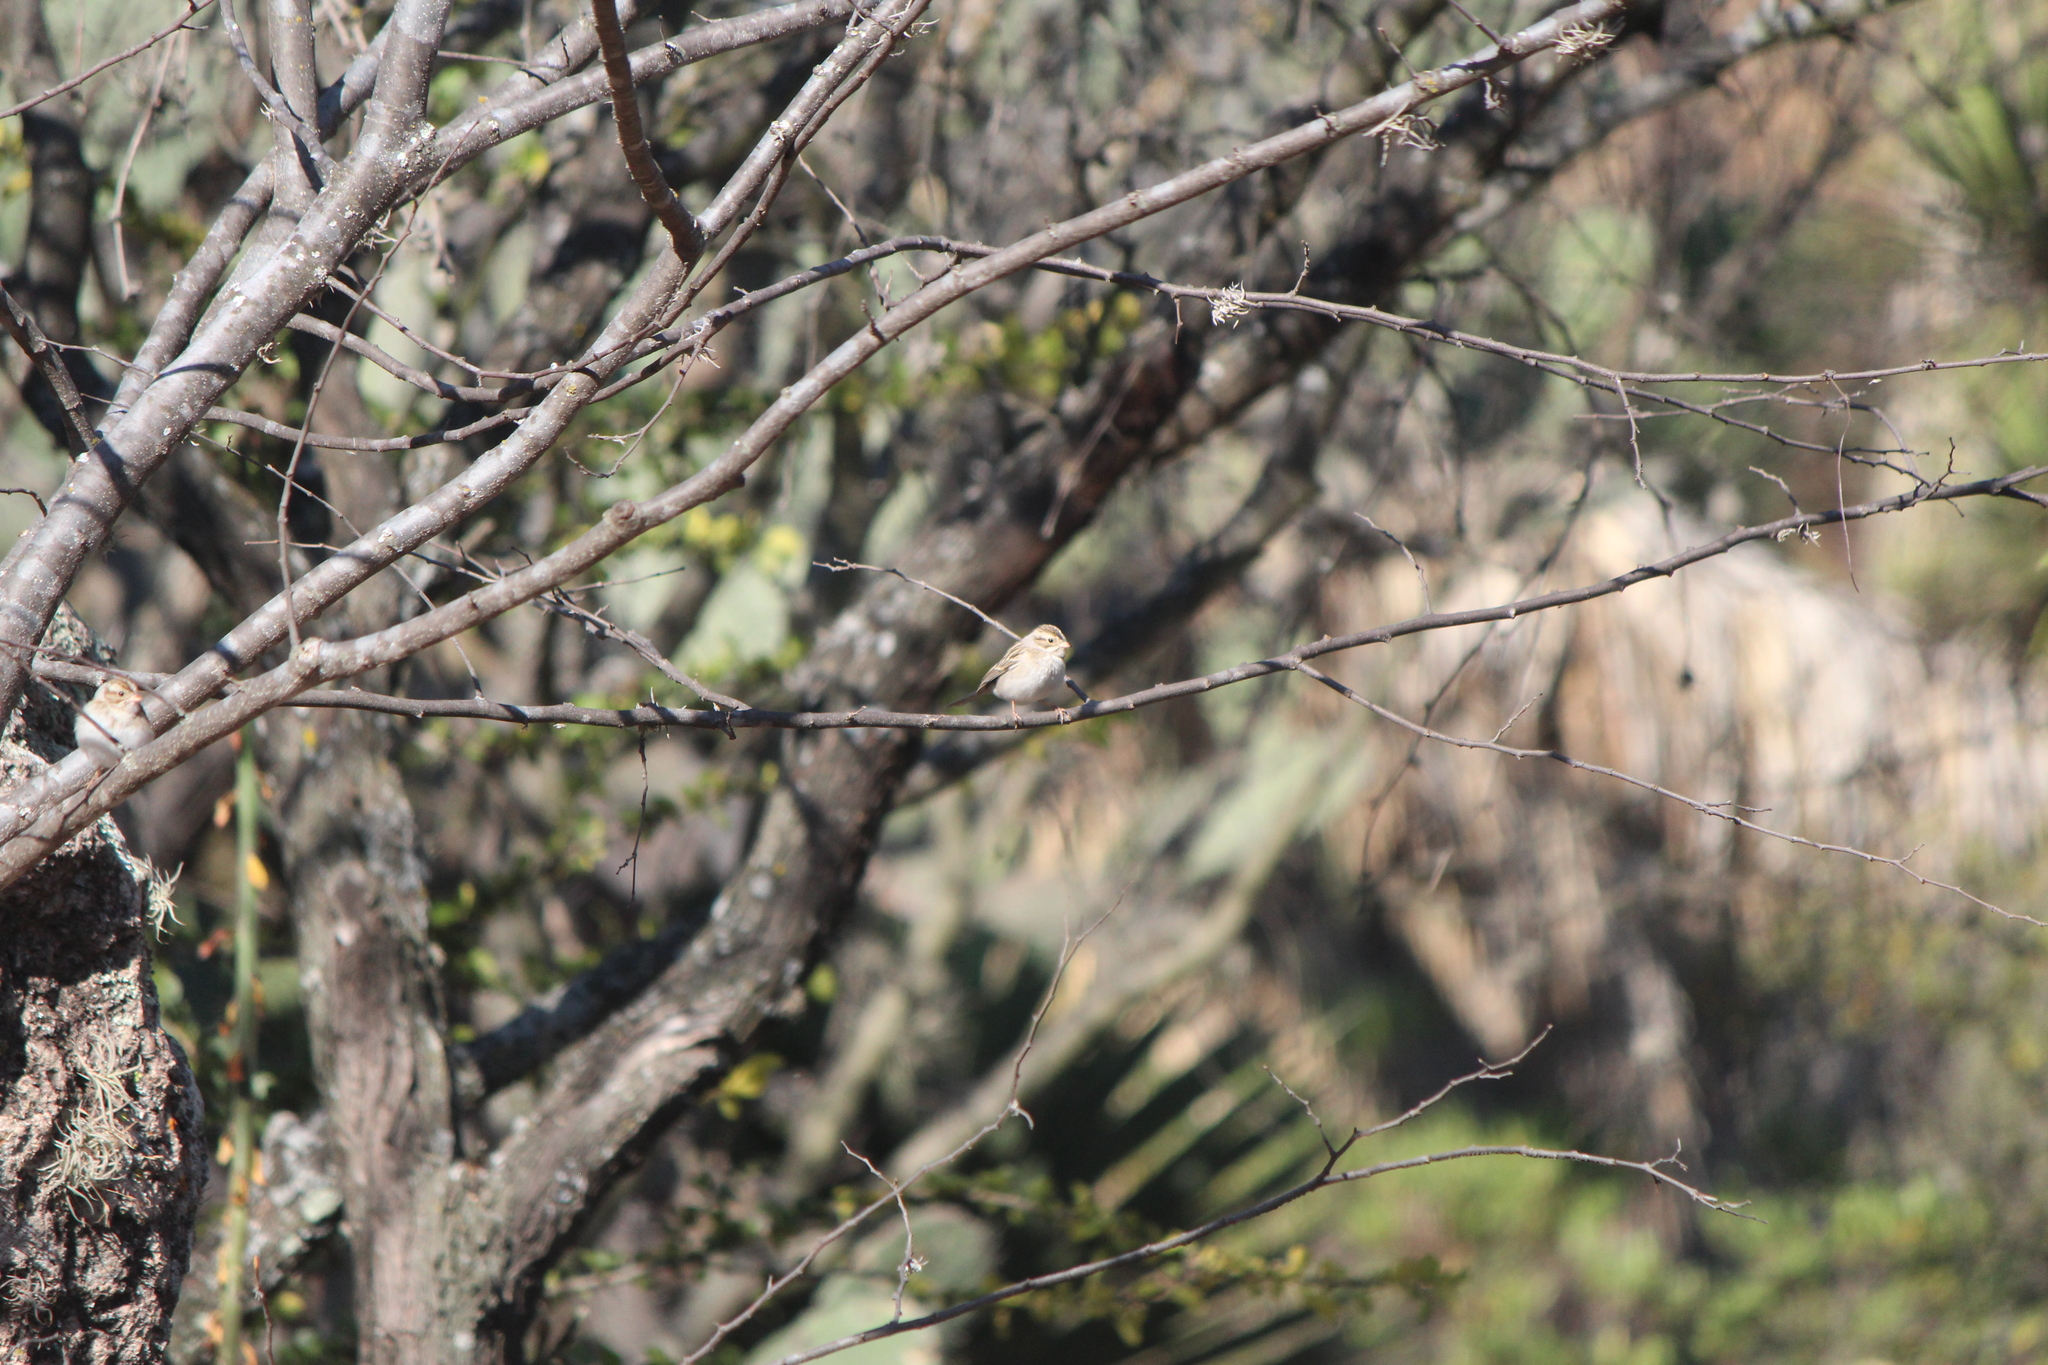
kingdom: Animalia
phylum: Chordata
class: Aves
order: Passeriformes
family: Passerellidae
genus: Spizella
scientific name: Spizella pallida
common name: Clay-colored sparrow
